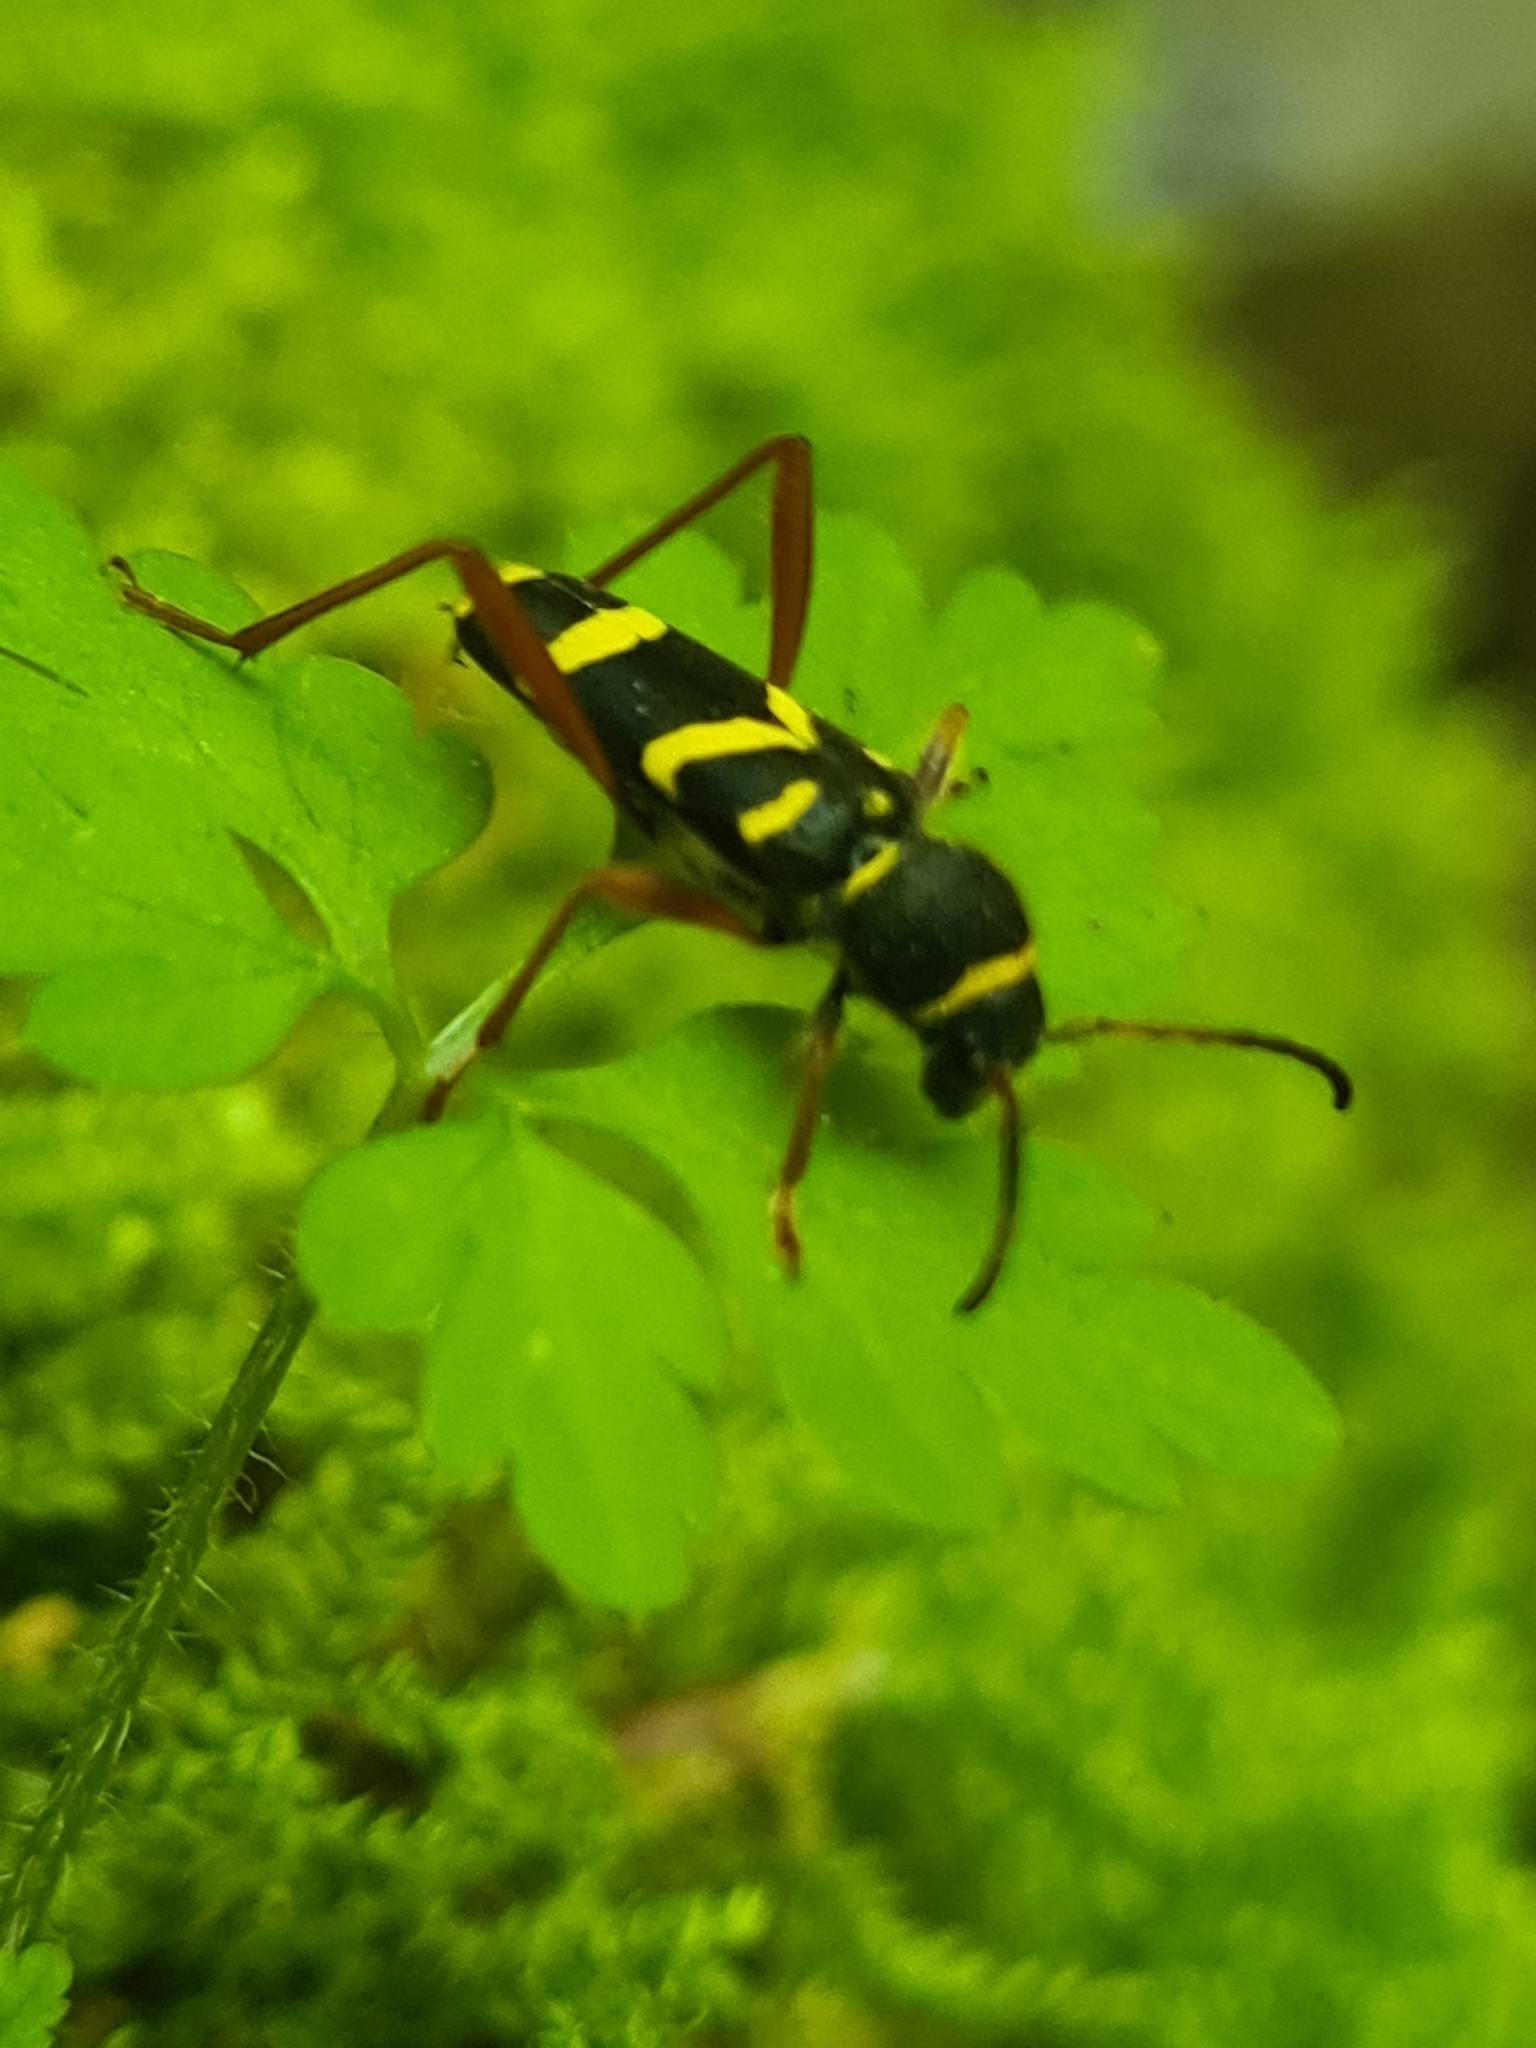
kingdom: Animalia
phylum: Arthropoda
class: Insecta
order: Coleoptera
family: Cerambycidae
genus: Clytus
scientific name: Clytus arietis
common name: Wasp beetle
